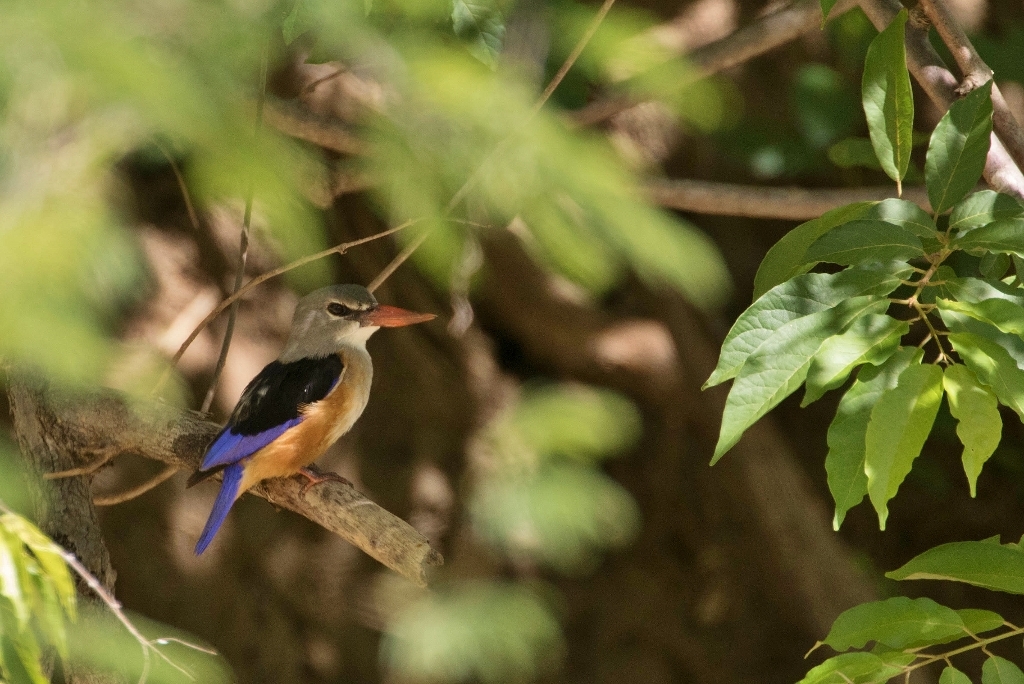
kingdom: Animalia
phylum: Chordata
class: Aves
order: Coraciiformes
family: Alcedinidae
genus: Halcyon
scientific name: Halcyon leucocephala
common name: Grey-headed kingfisher
